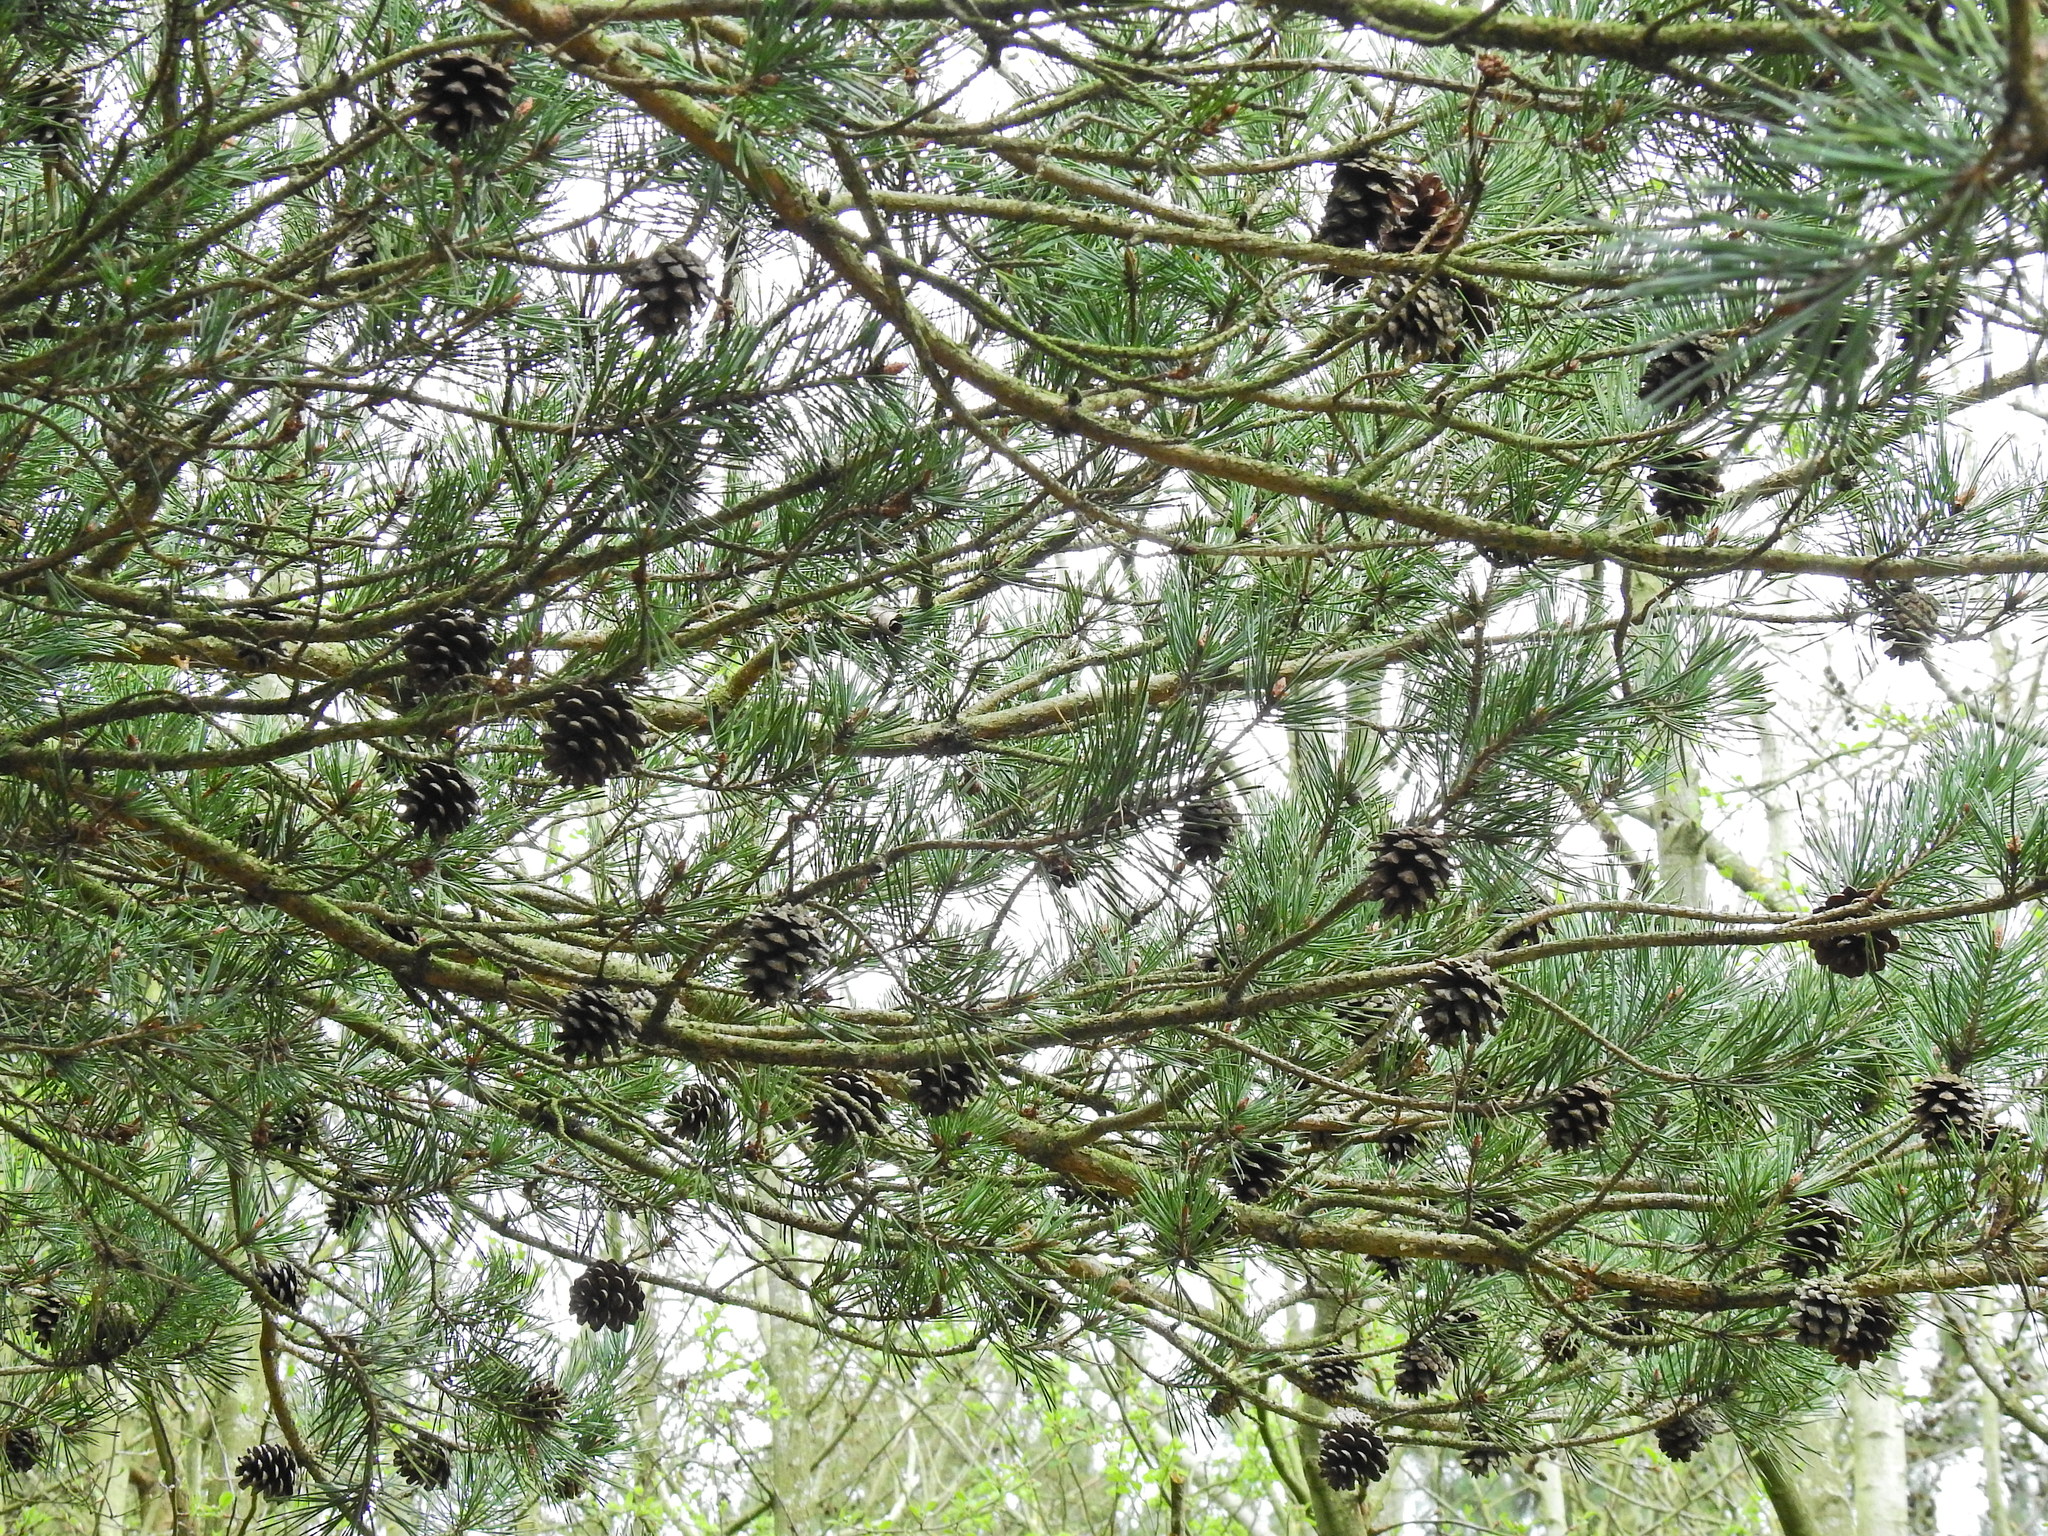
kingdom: Plantae
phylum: Tracheophyta
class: Pinopsida
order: Pinales
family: Pinaceae
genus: Pinus
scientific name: Pinus sylvestris
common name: Scots pine
